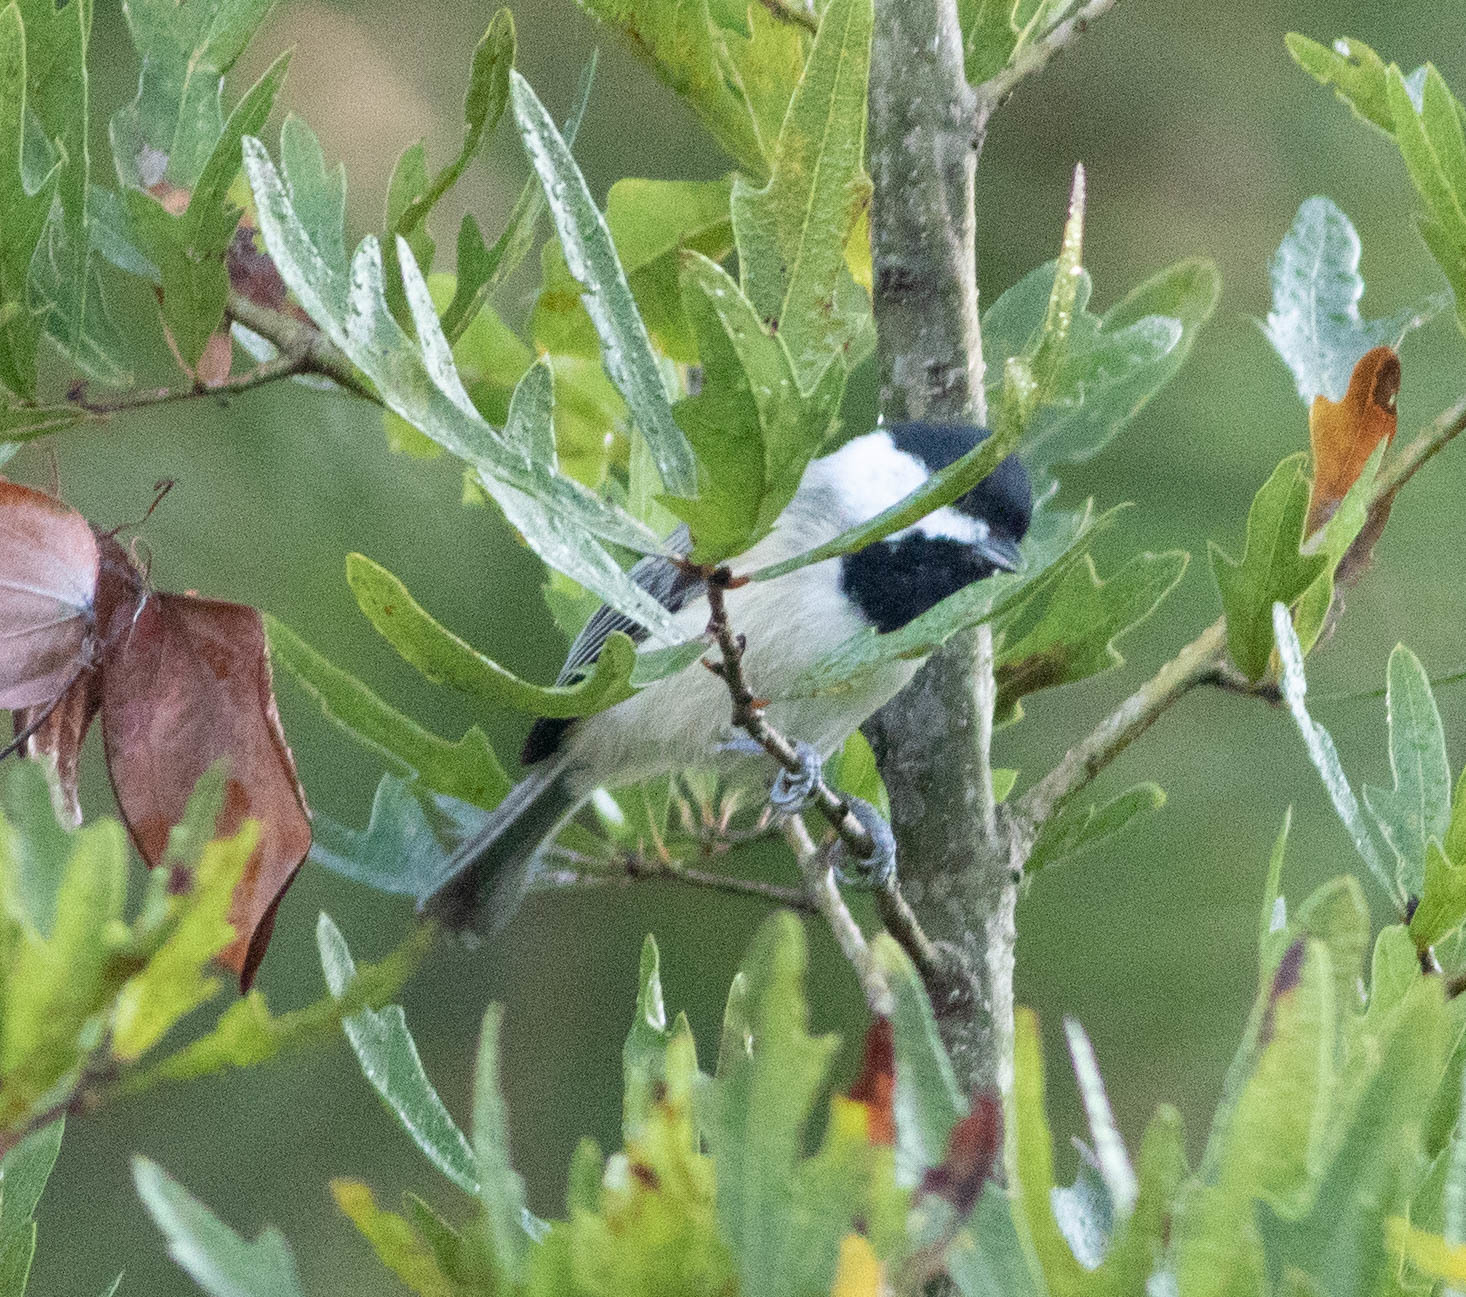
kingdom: Animalia
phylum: Chordata
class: Aves
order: Passeriformes
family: Paridae
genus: Poecile
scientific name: Poecile carolinensis
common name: Carolina chickadee
